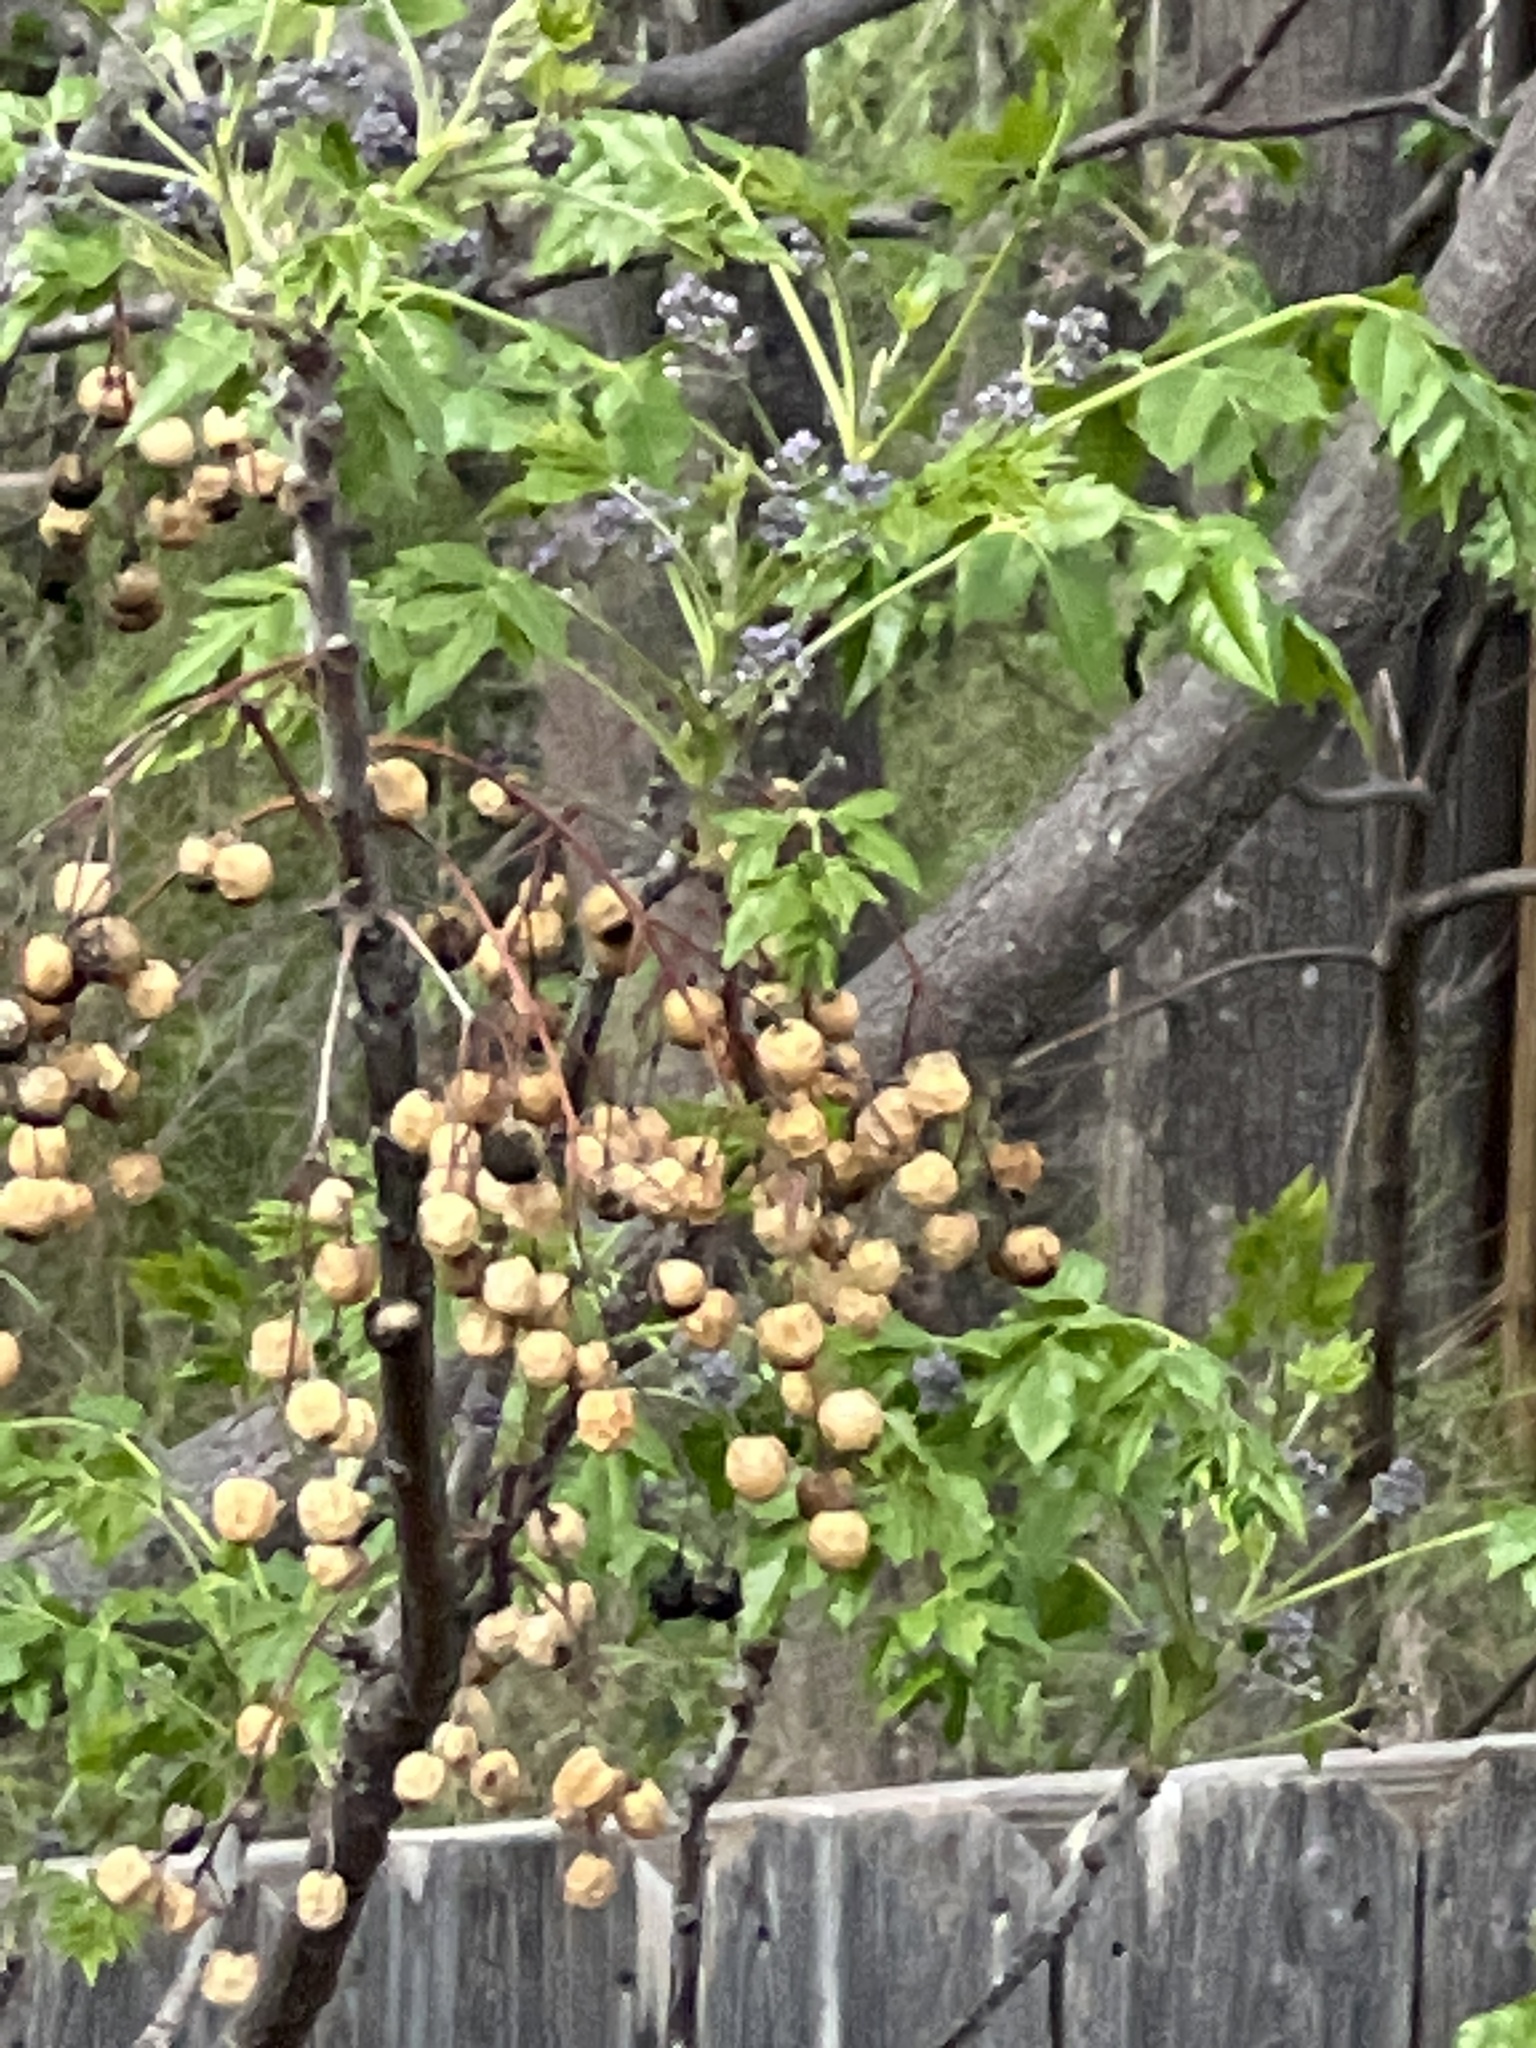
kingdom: Plantae
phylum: Tracheophyta
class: Magnoliopsida
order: Sapindales
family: Meliaceae
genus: Melia
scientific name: Melia azedarach
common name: Chinaberrytree
